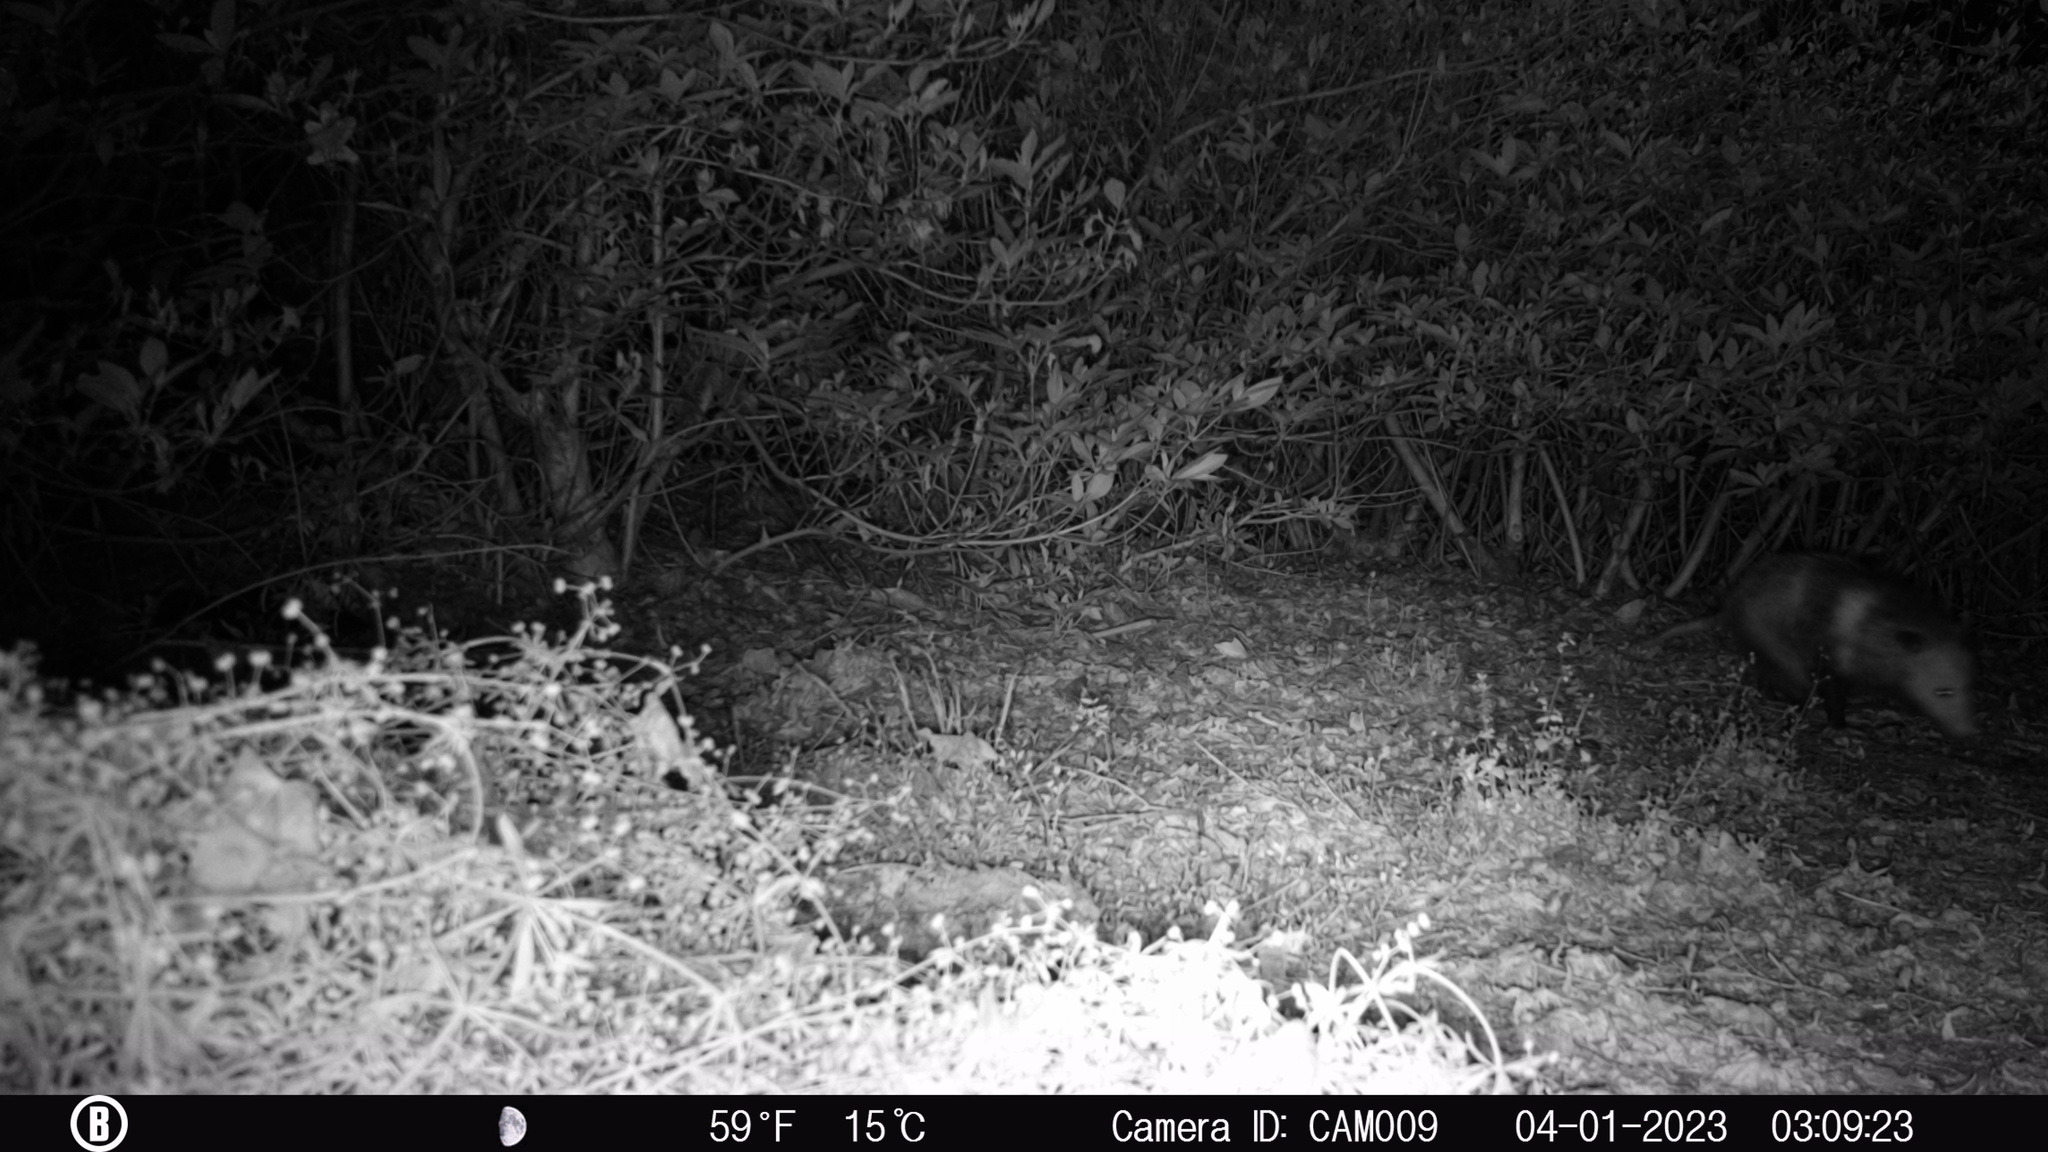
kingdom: Animalia
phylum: Chordata
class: Mammalia
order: Didelphimorphia
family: Didelphidae
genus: Didelphis
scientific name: Didelphis virginiana
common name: Virginia opossum
